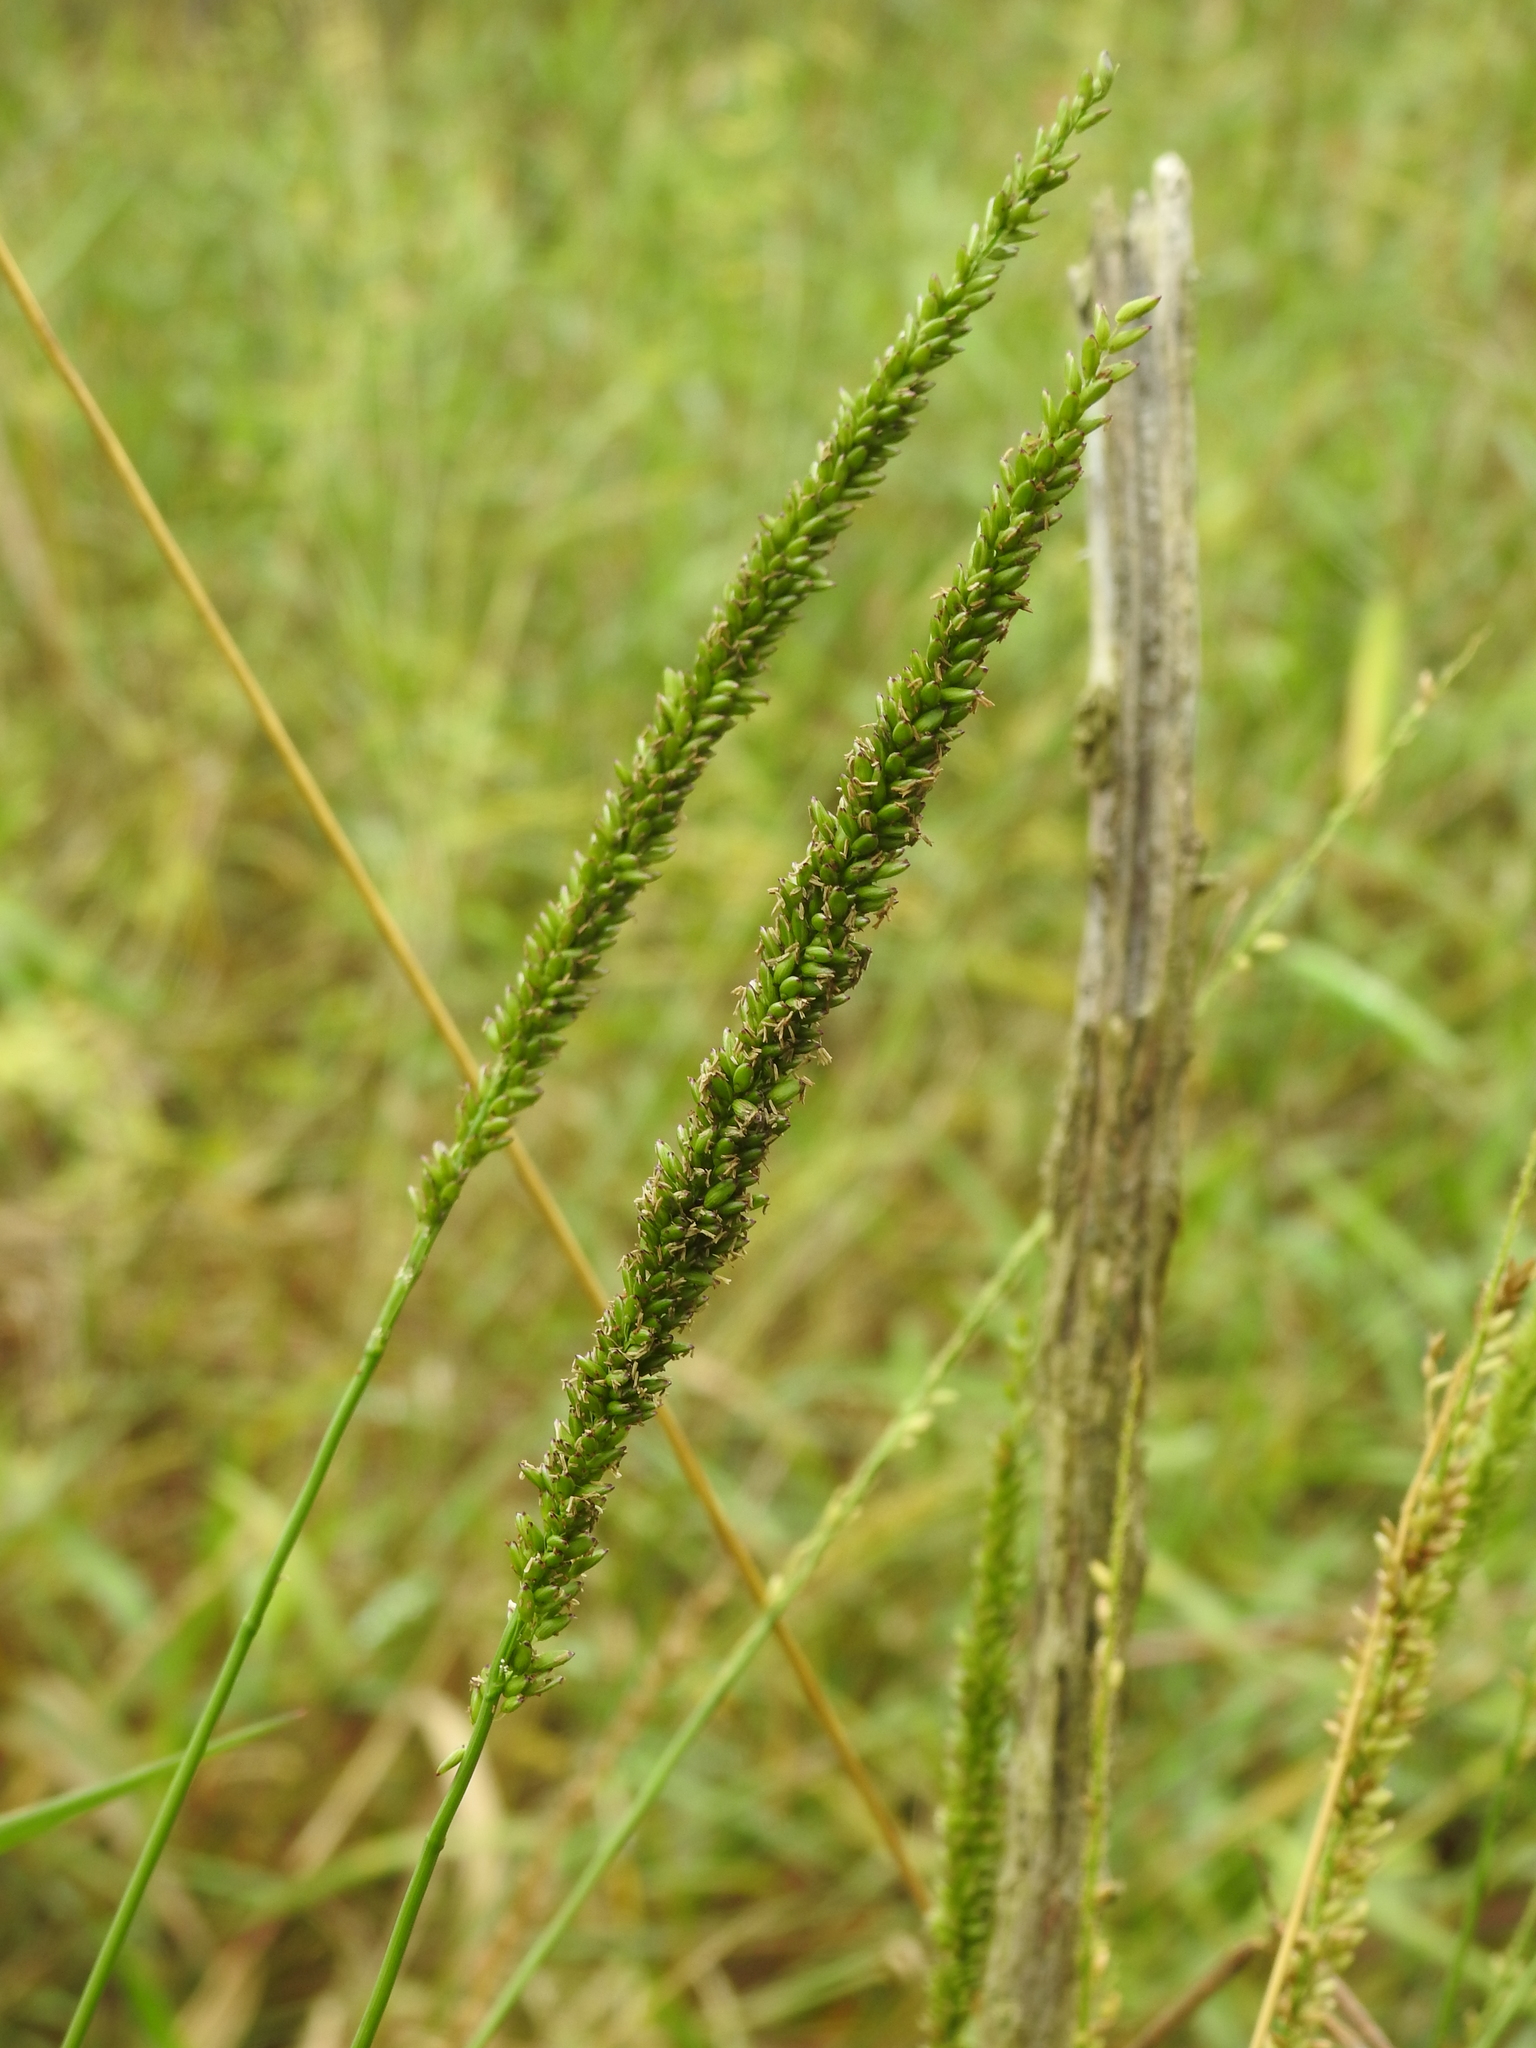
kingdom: Plantae
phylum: Tracheophyta
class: Liliopsida
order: Poales
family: Poaceae
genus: Sacciolepis
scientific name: Sacciolepis striata
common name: American cupscale
